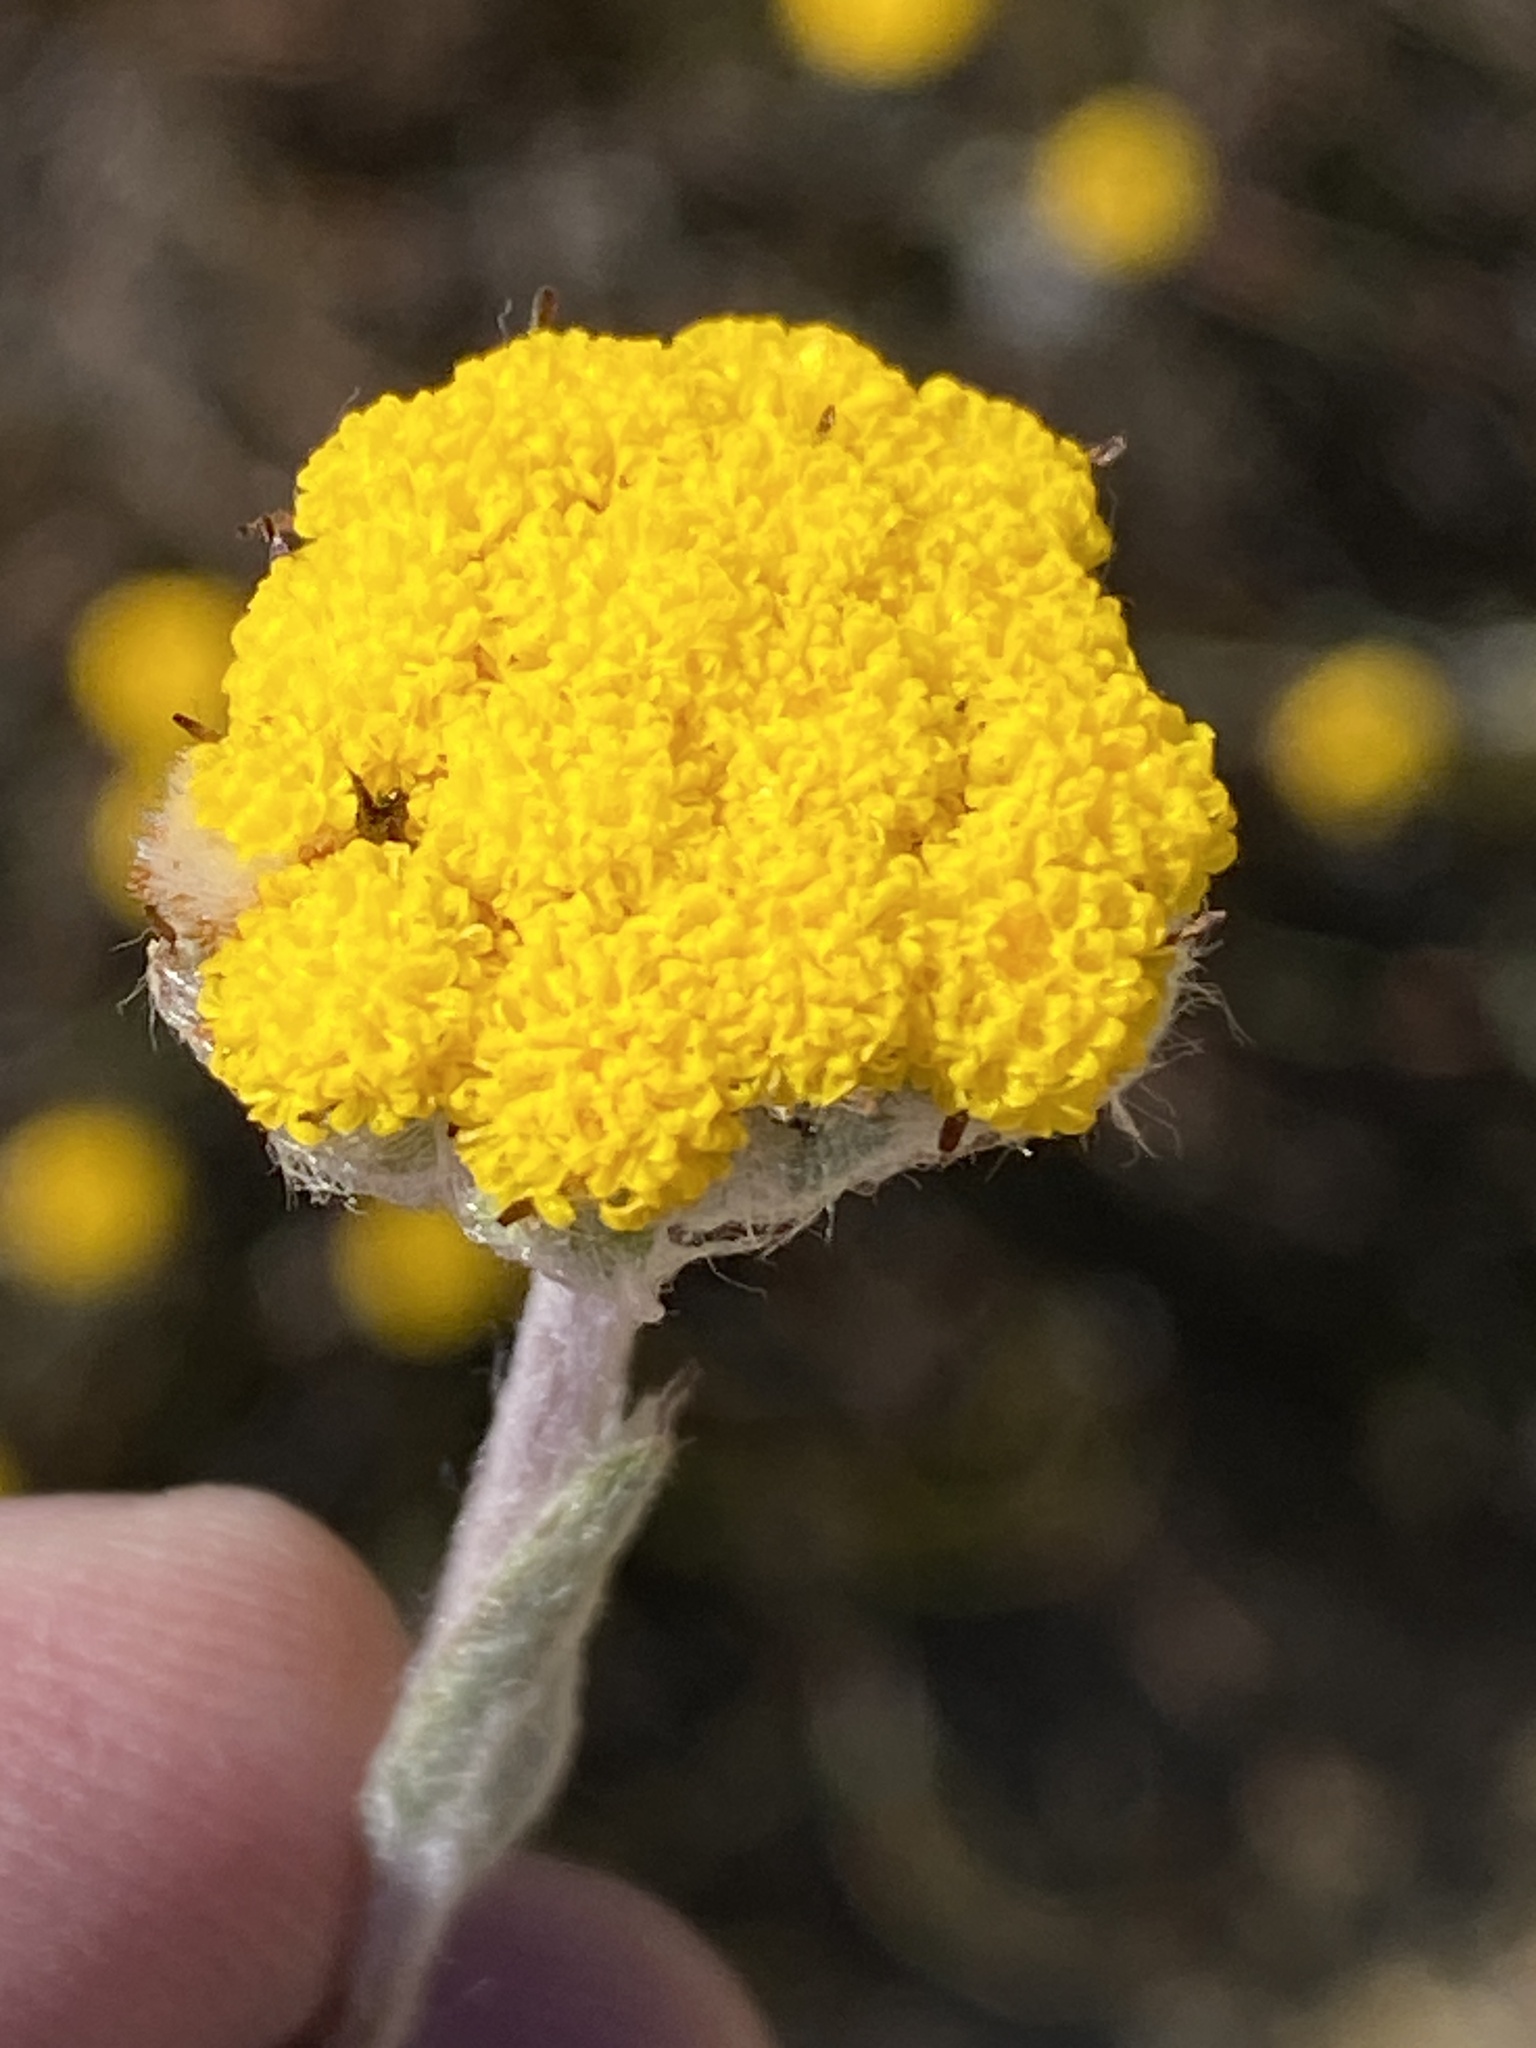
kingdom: Plantae
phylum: Tracheophyta
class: Magnoliopsida
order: Asterales
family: Asteraceae
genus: Helichrysum
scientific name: Helichrysum catipes
